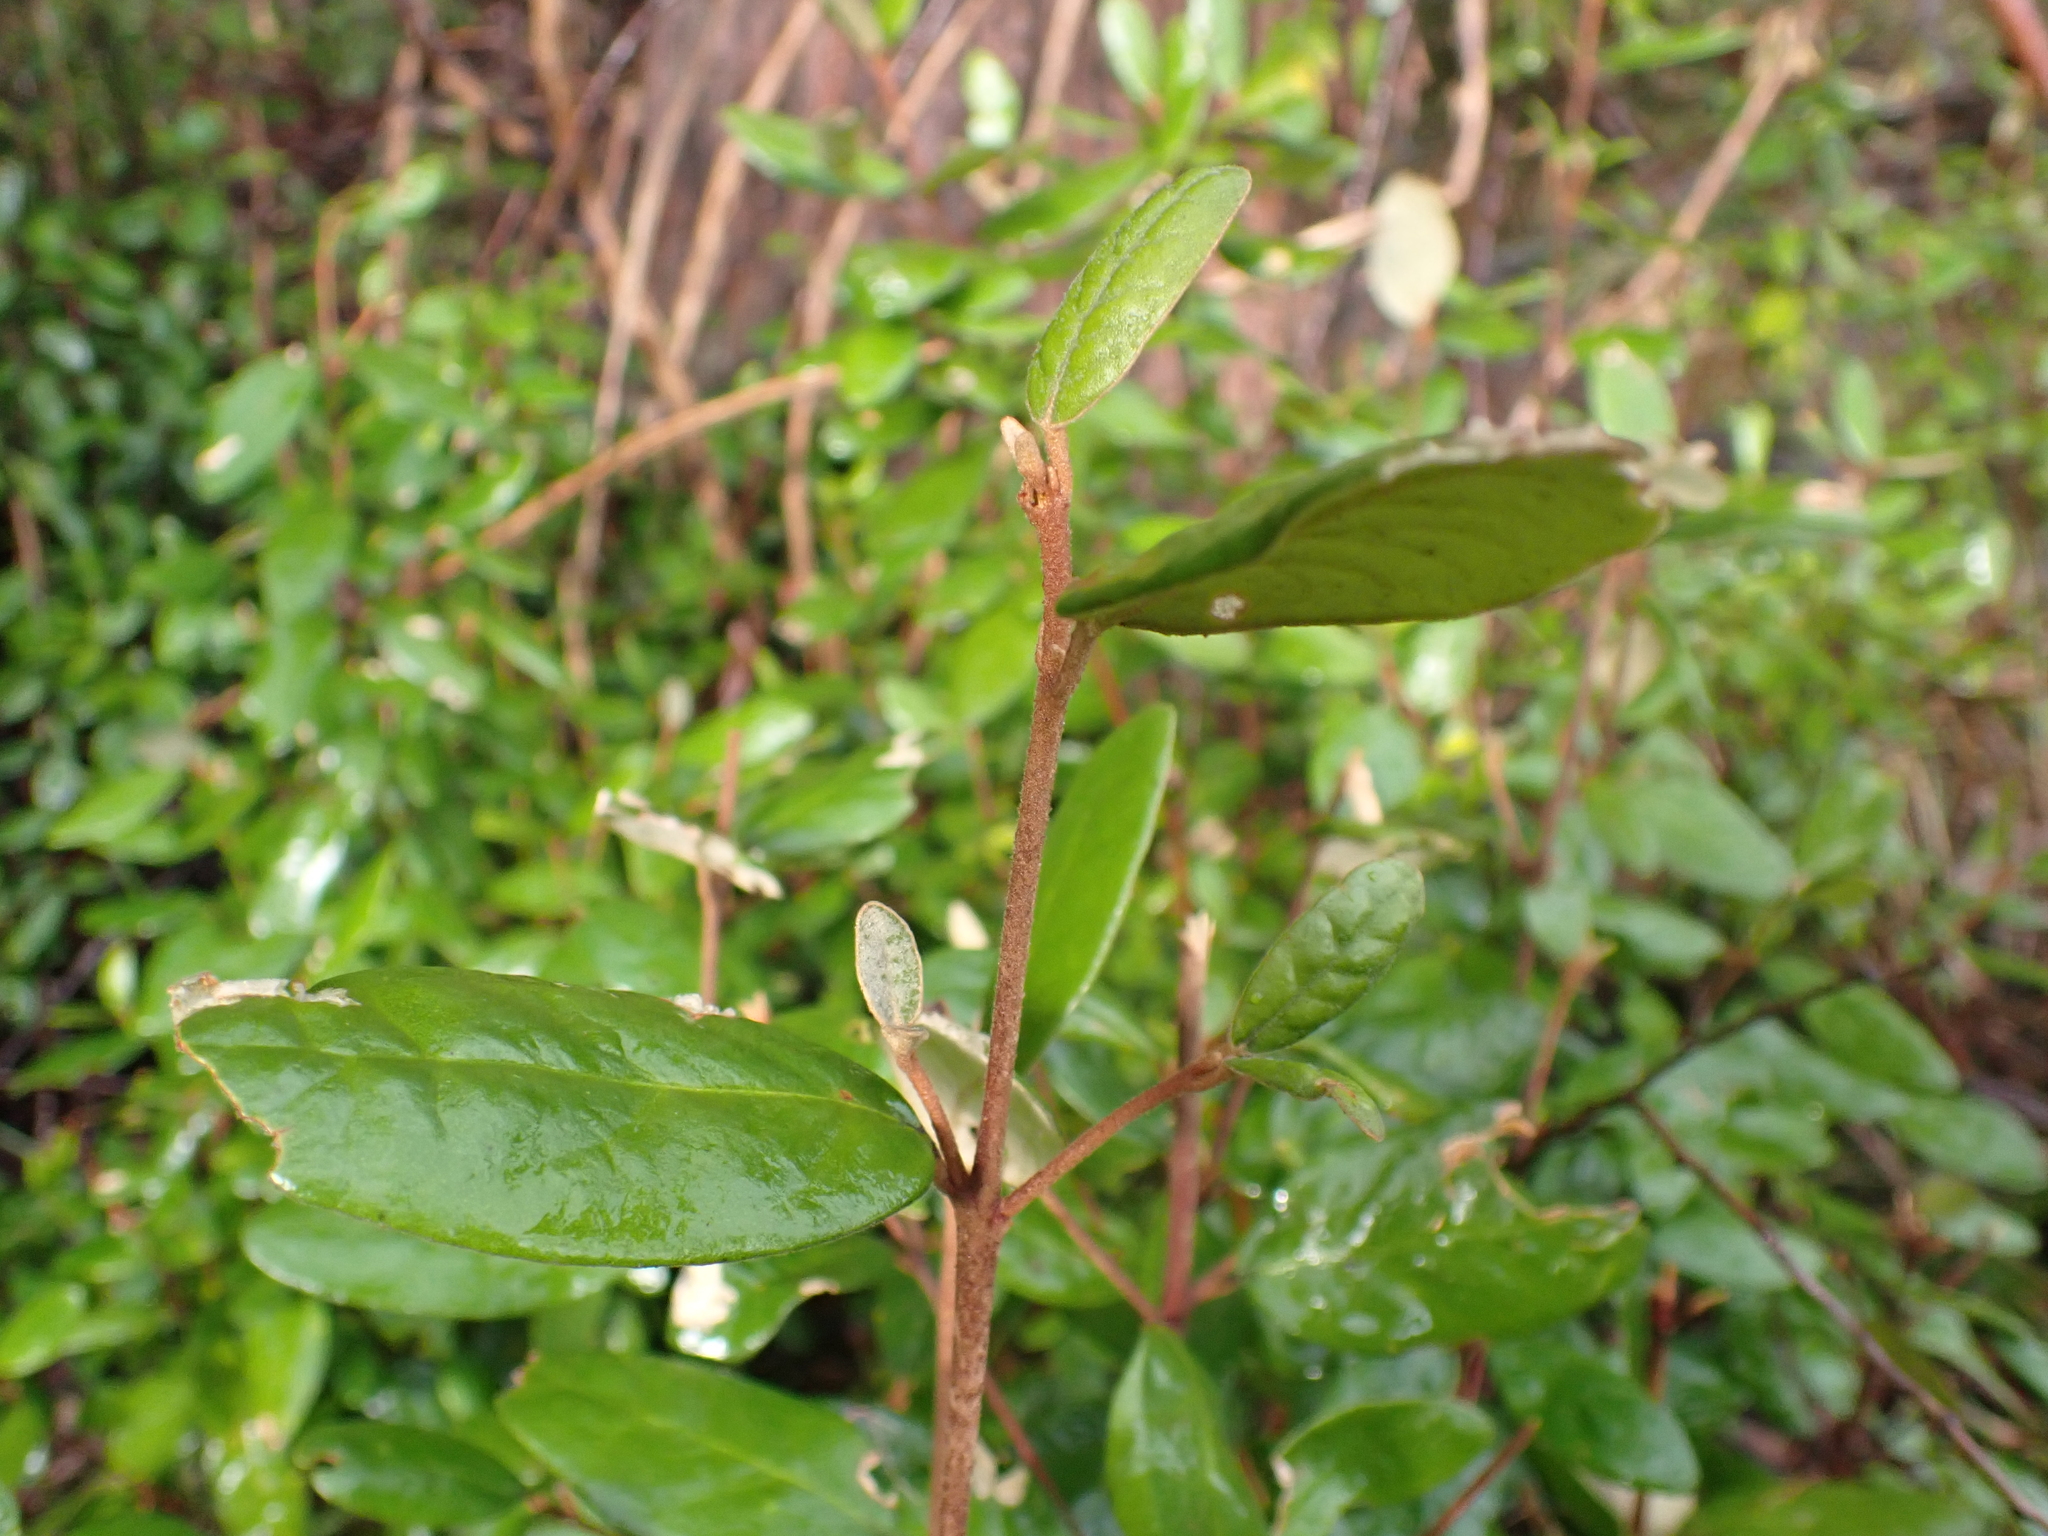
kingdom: Plantae
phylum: Tracheophyta
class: Magnoliopsida
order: Sapindales
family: Rutaceae
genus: Correa
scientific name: Correa lawrenceana
